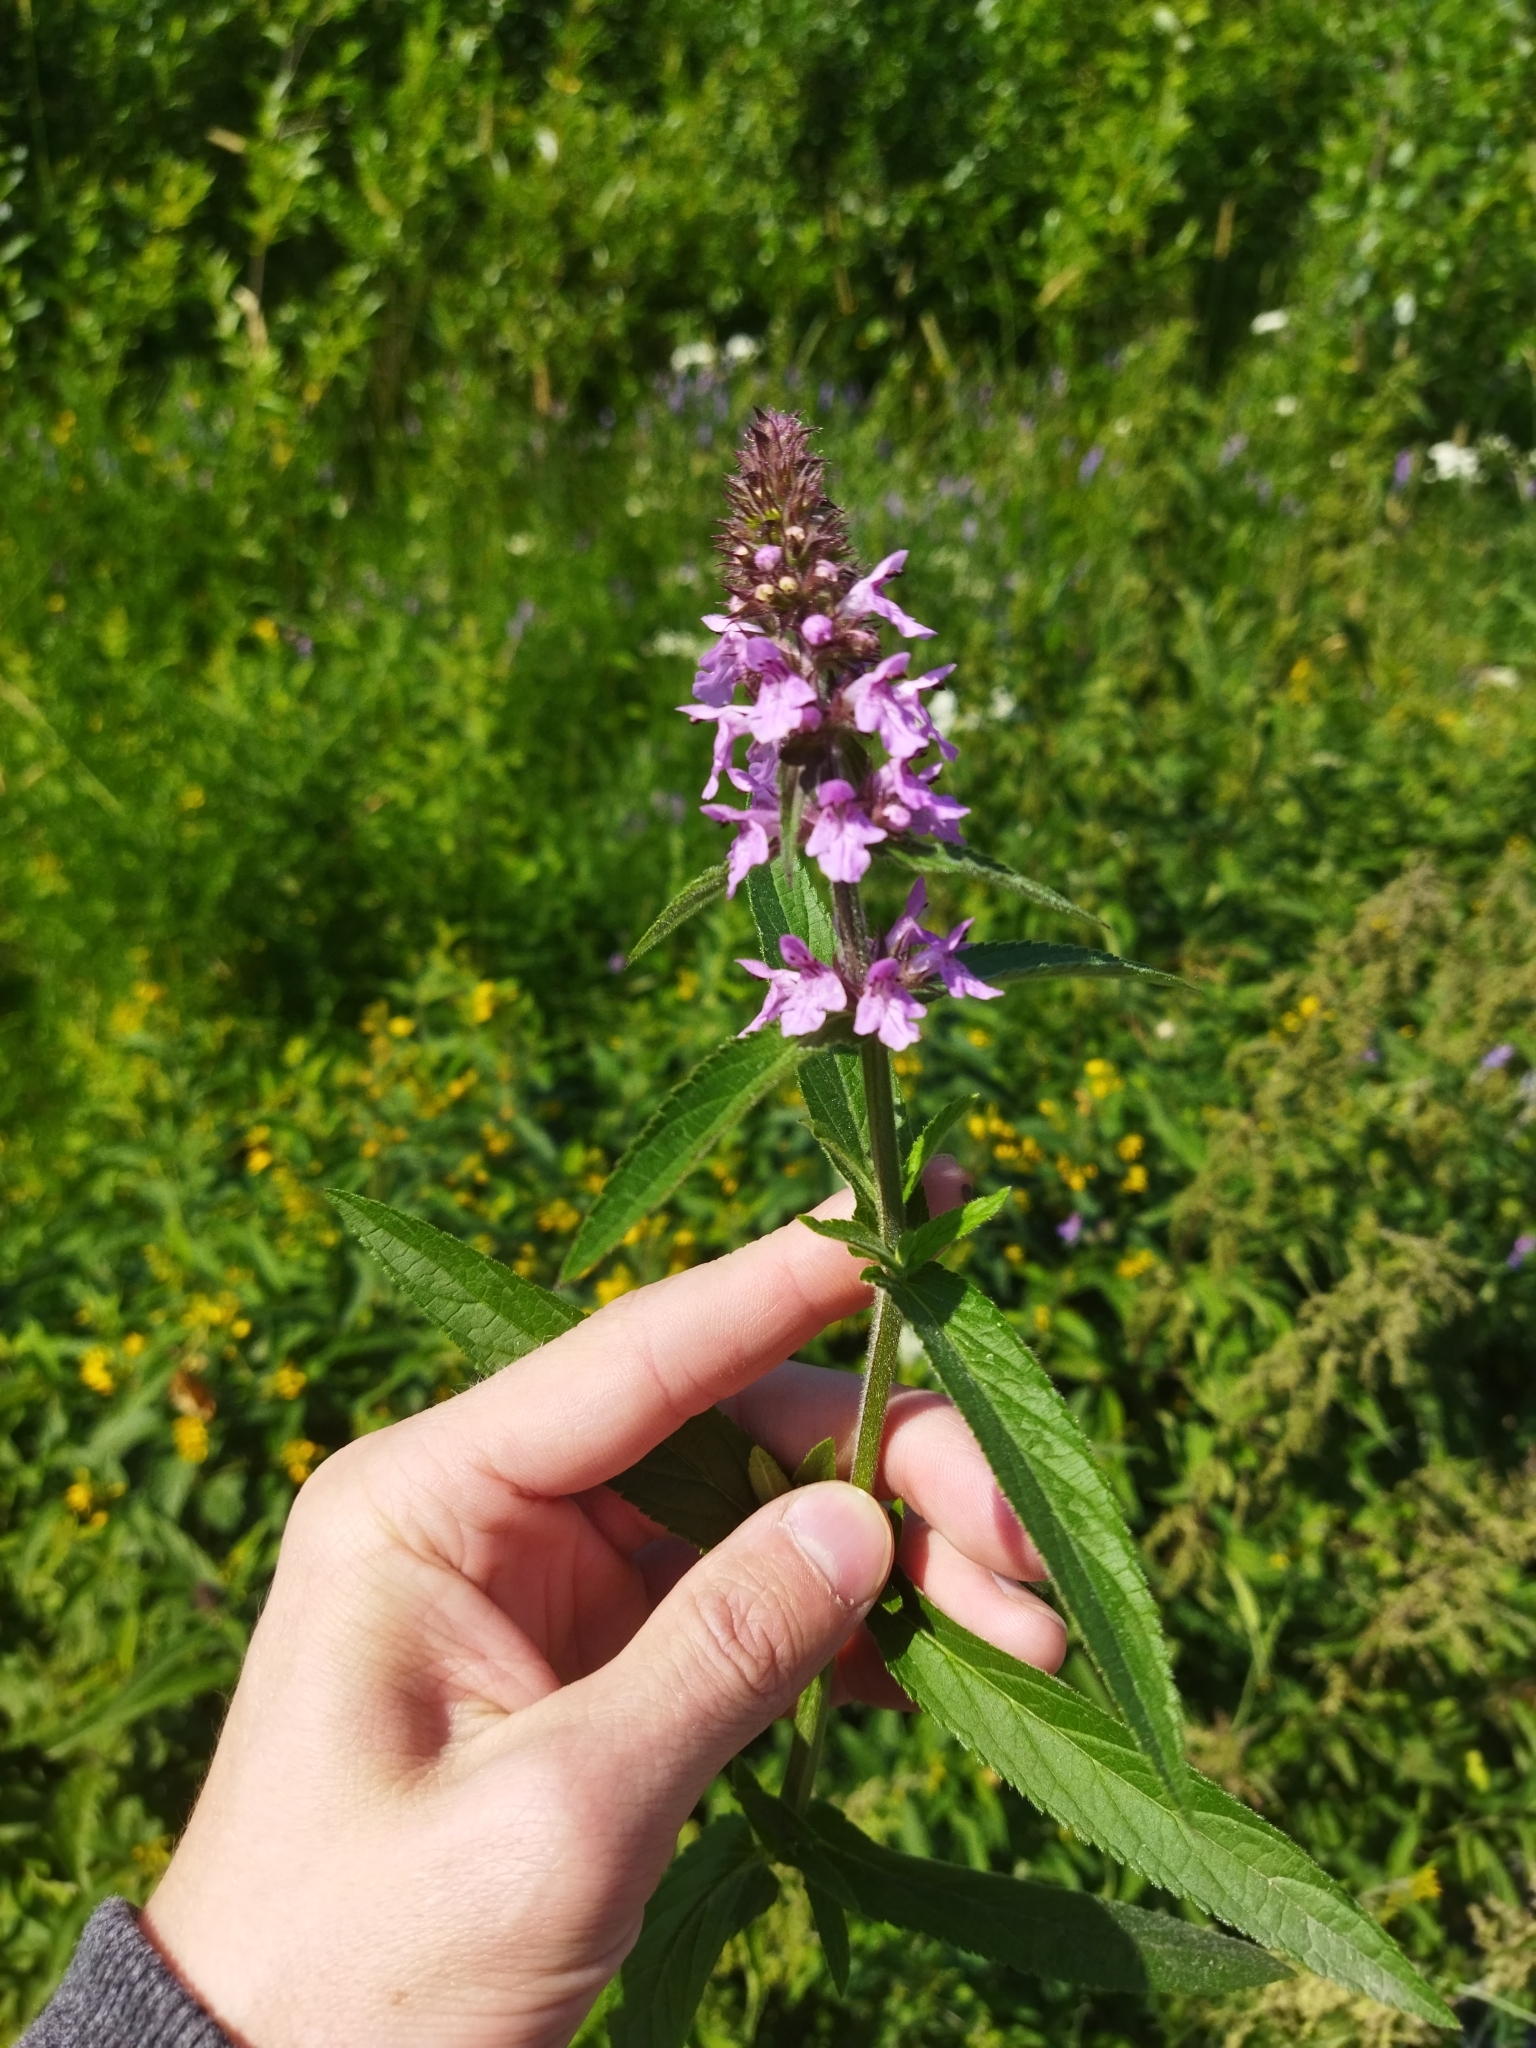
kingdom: Plantae
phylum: Tracheophyta
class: Magnoliopsida
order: Lamiales
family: Lamiaceae
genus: Stachys
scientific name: Stachys palustris
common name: Marsh woundwort
